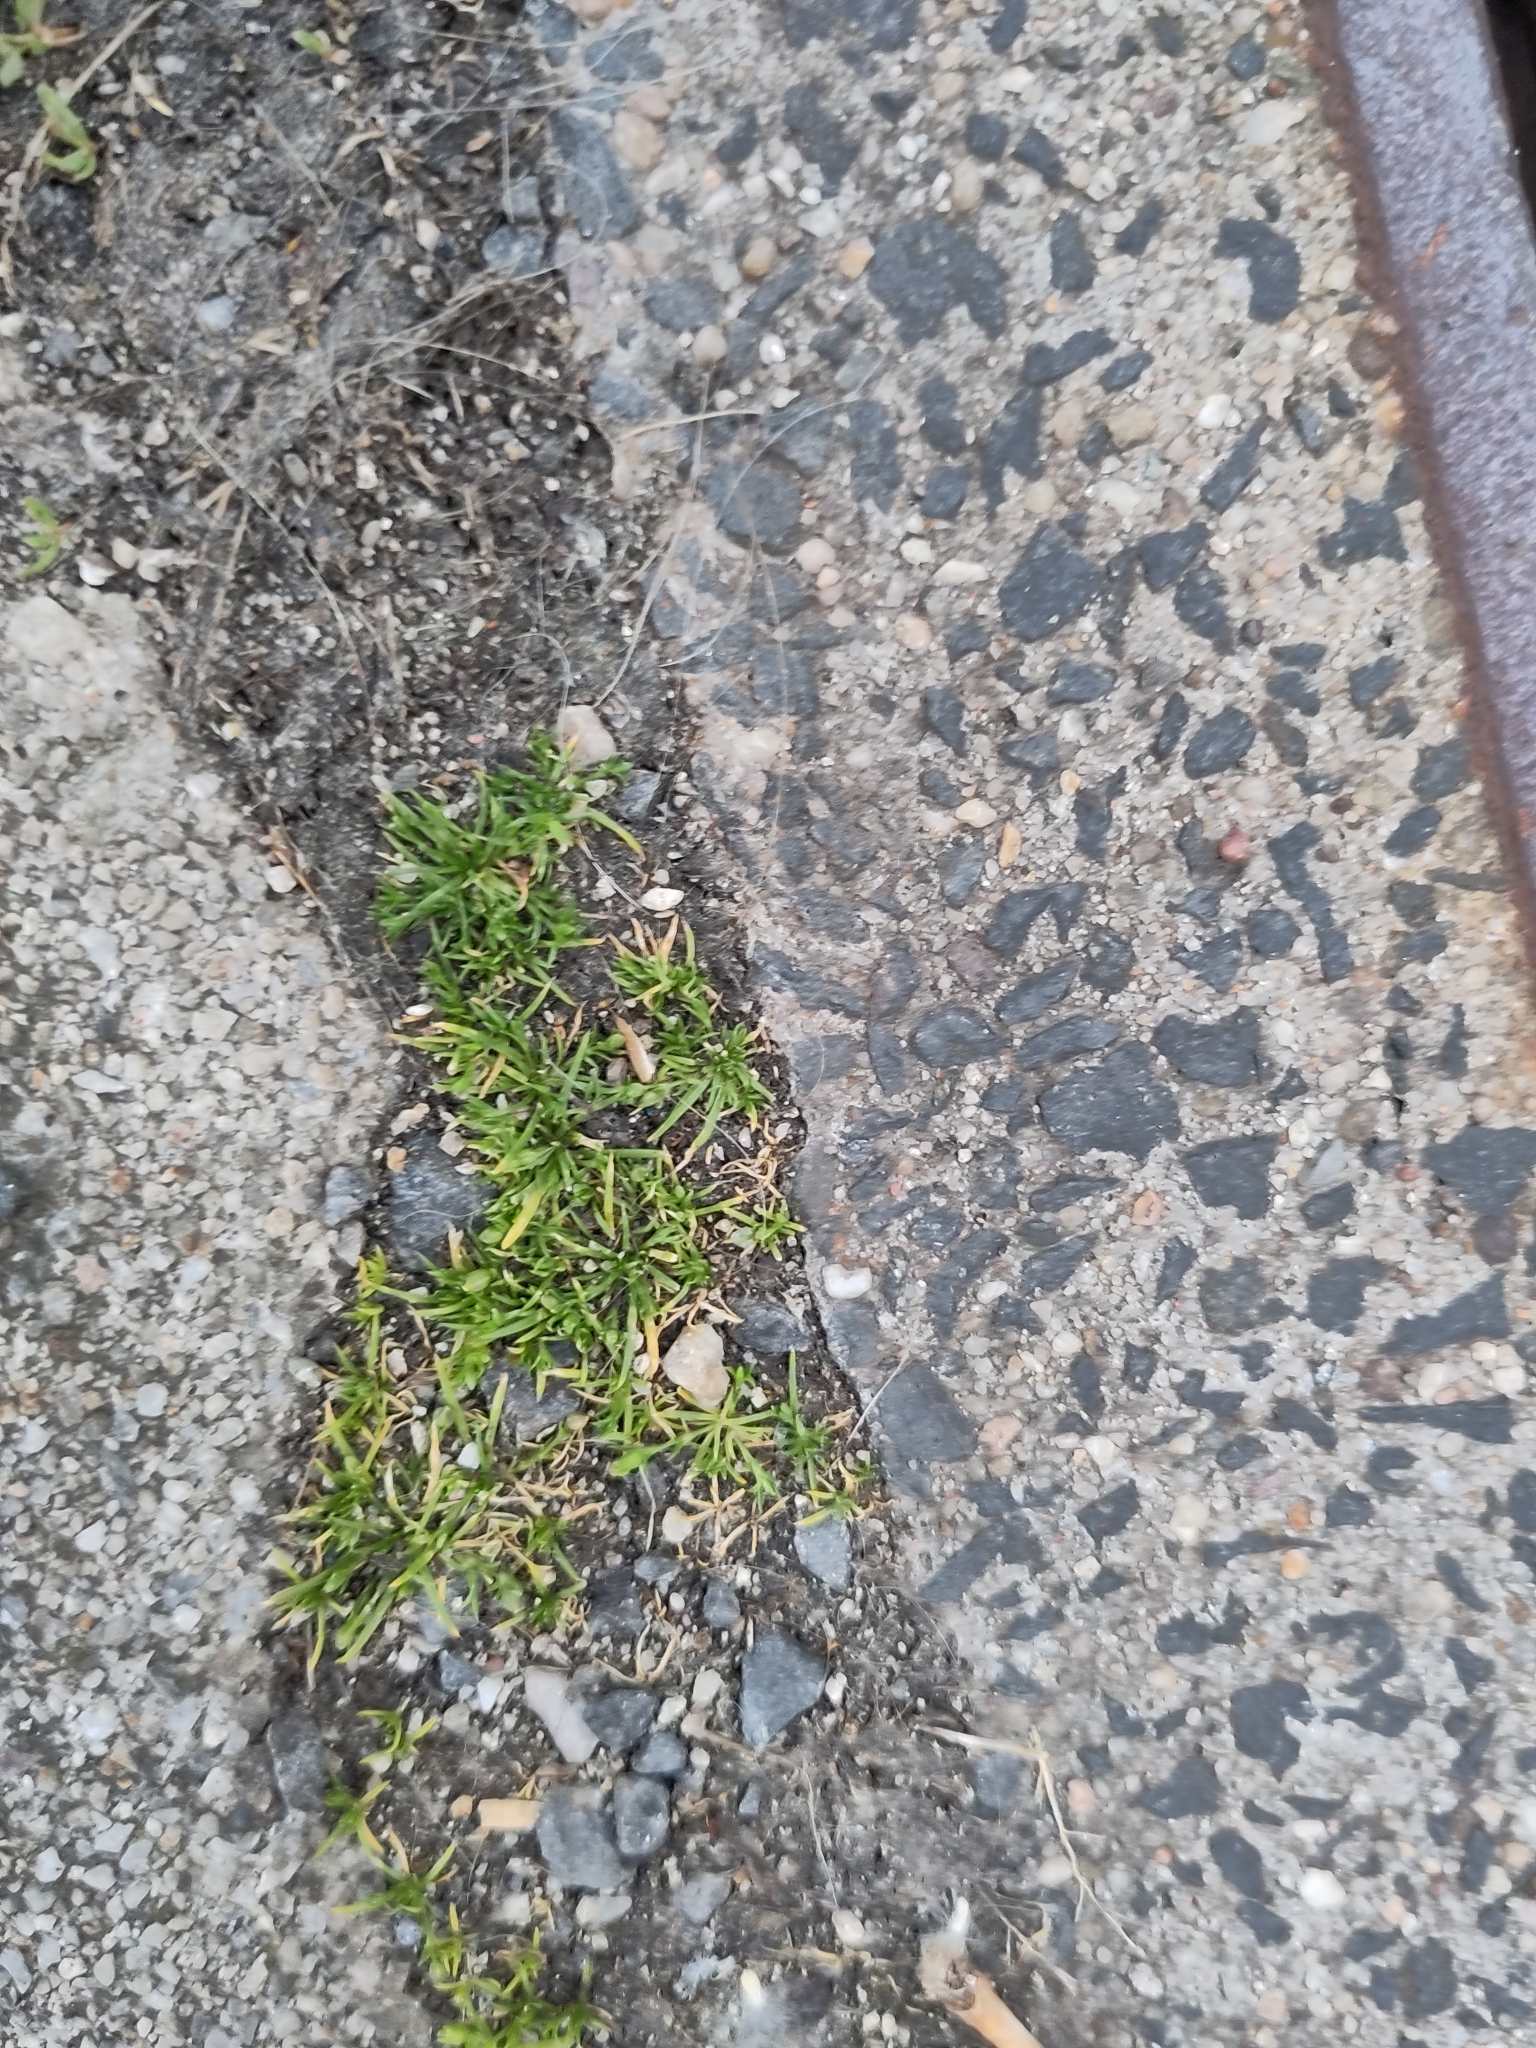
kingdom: Plantae
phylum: Tracheophyta
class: Magnoliopsida
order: Caryophyllales
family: Caryophyllaceae
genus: Sagina
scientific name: Sagina procumbens
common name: Procumbent pearlwort
